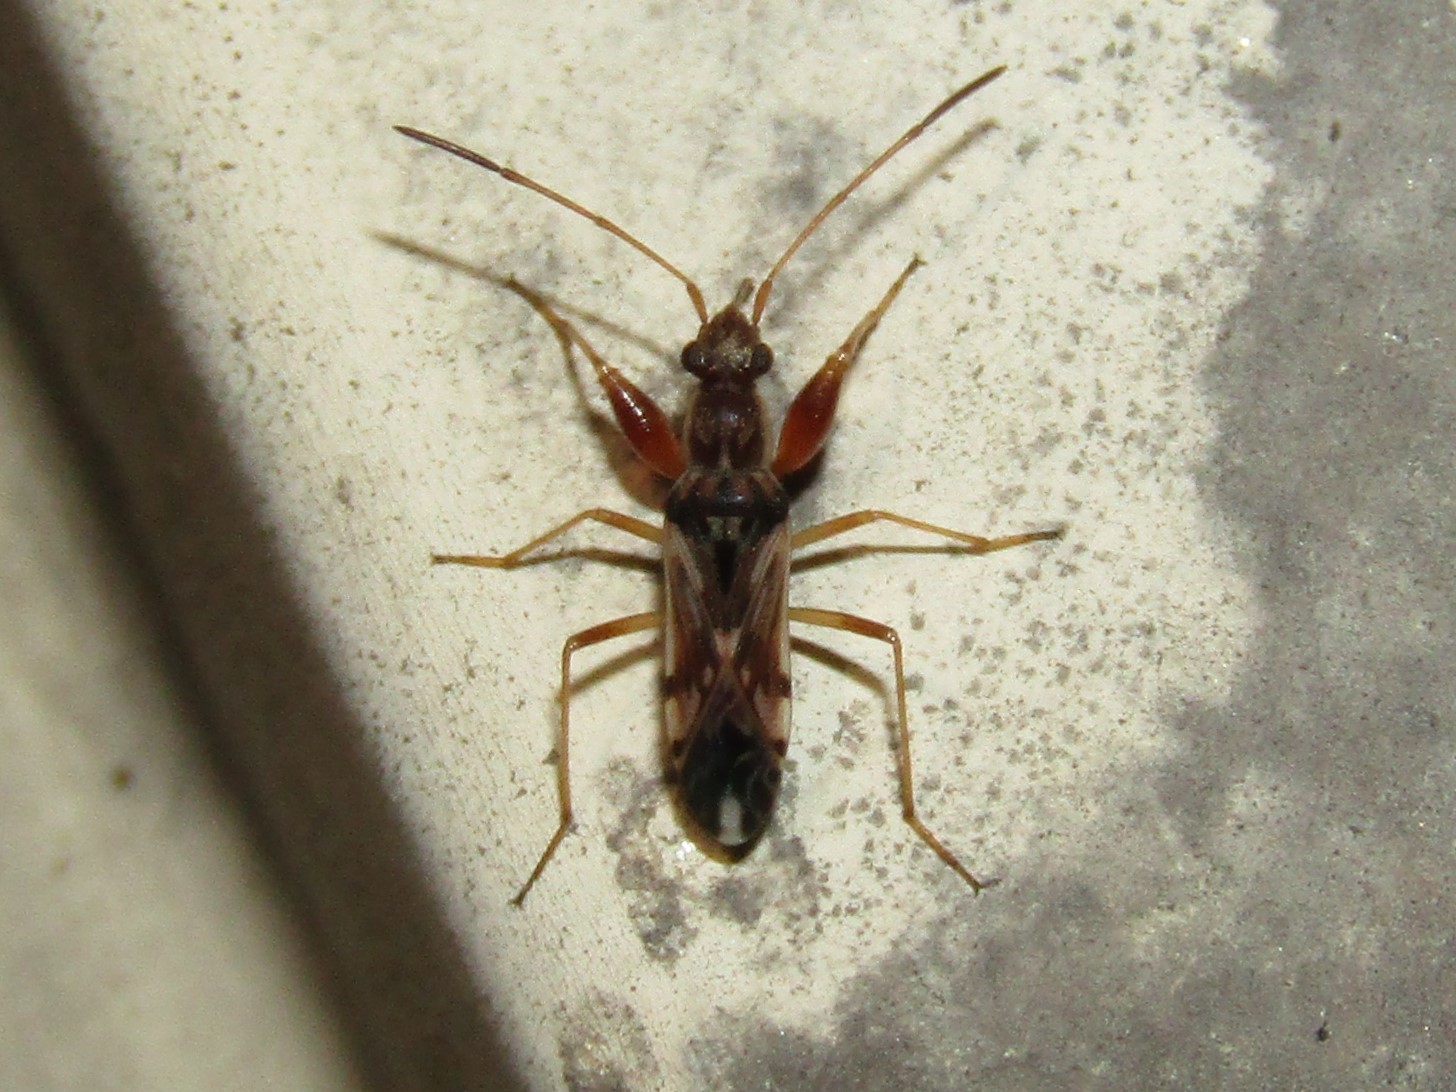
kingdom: Animalia
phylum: Arthropoda
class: Insecta
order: Hemiptera
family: Rhyparochromidae
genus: Neopamera
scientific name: Neopamera bilobata
